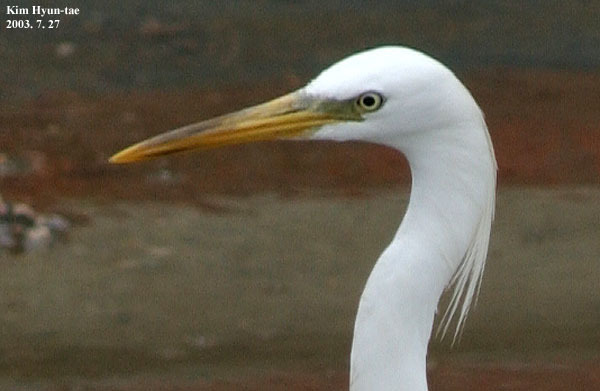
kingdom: Animalia
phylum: Chordata
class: Aves
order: Pelecaniformes
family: Ardeidae
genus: Egretta
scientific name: Egretta eulophotes
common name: Chinese egret
